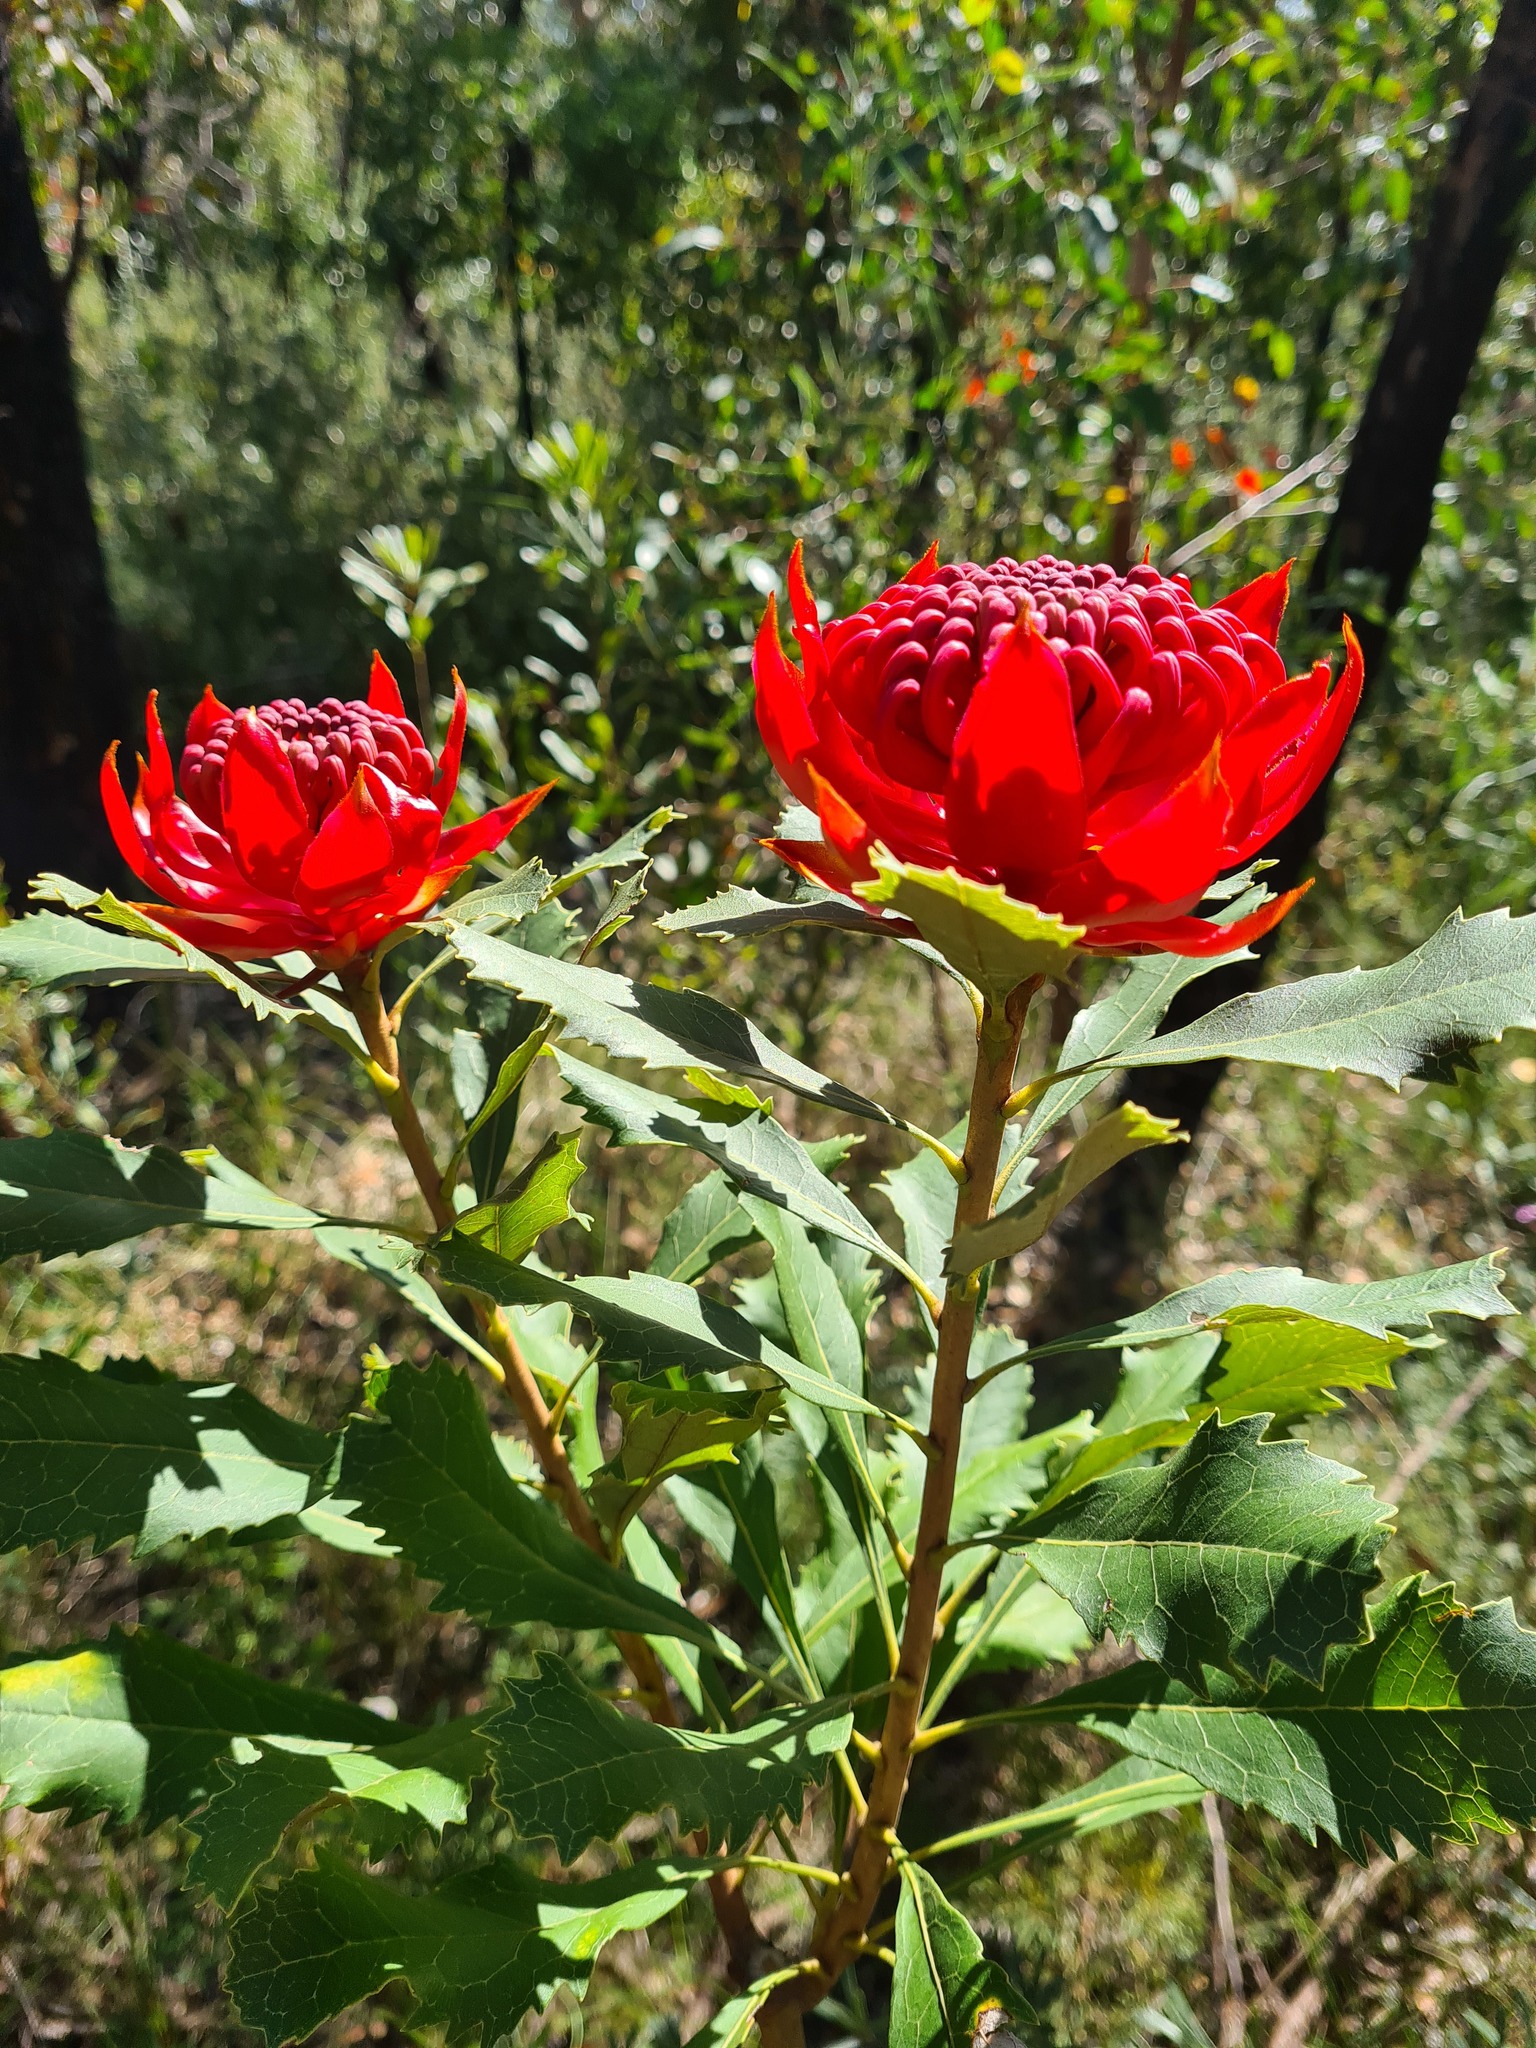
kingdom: Plantae
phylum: Tracheophyta
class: Magnoliopsida
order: Proteales
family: Proteaceae
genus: Telopea
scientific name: Telopea speciosissima
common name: New south wales waratah
